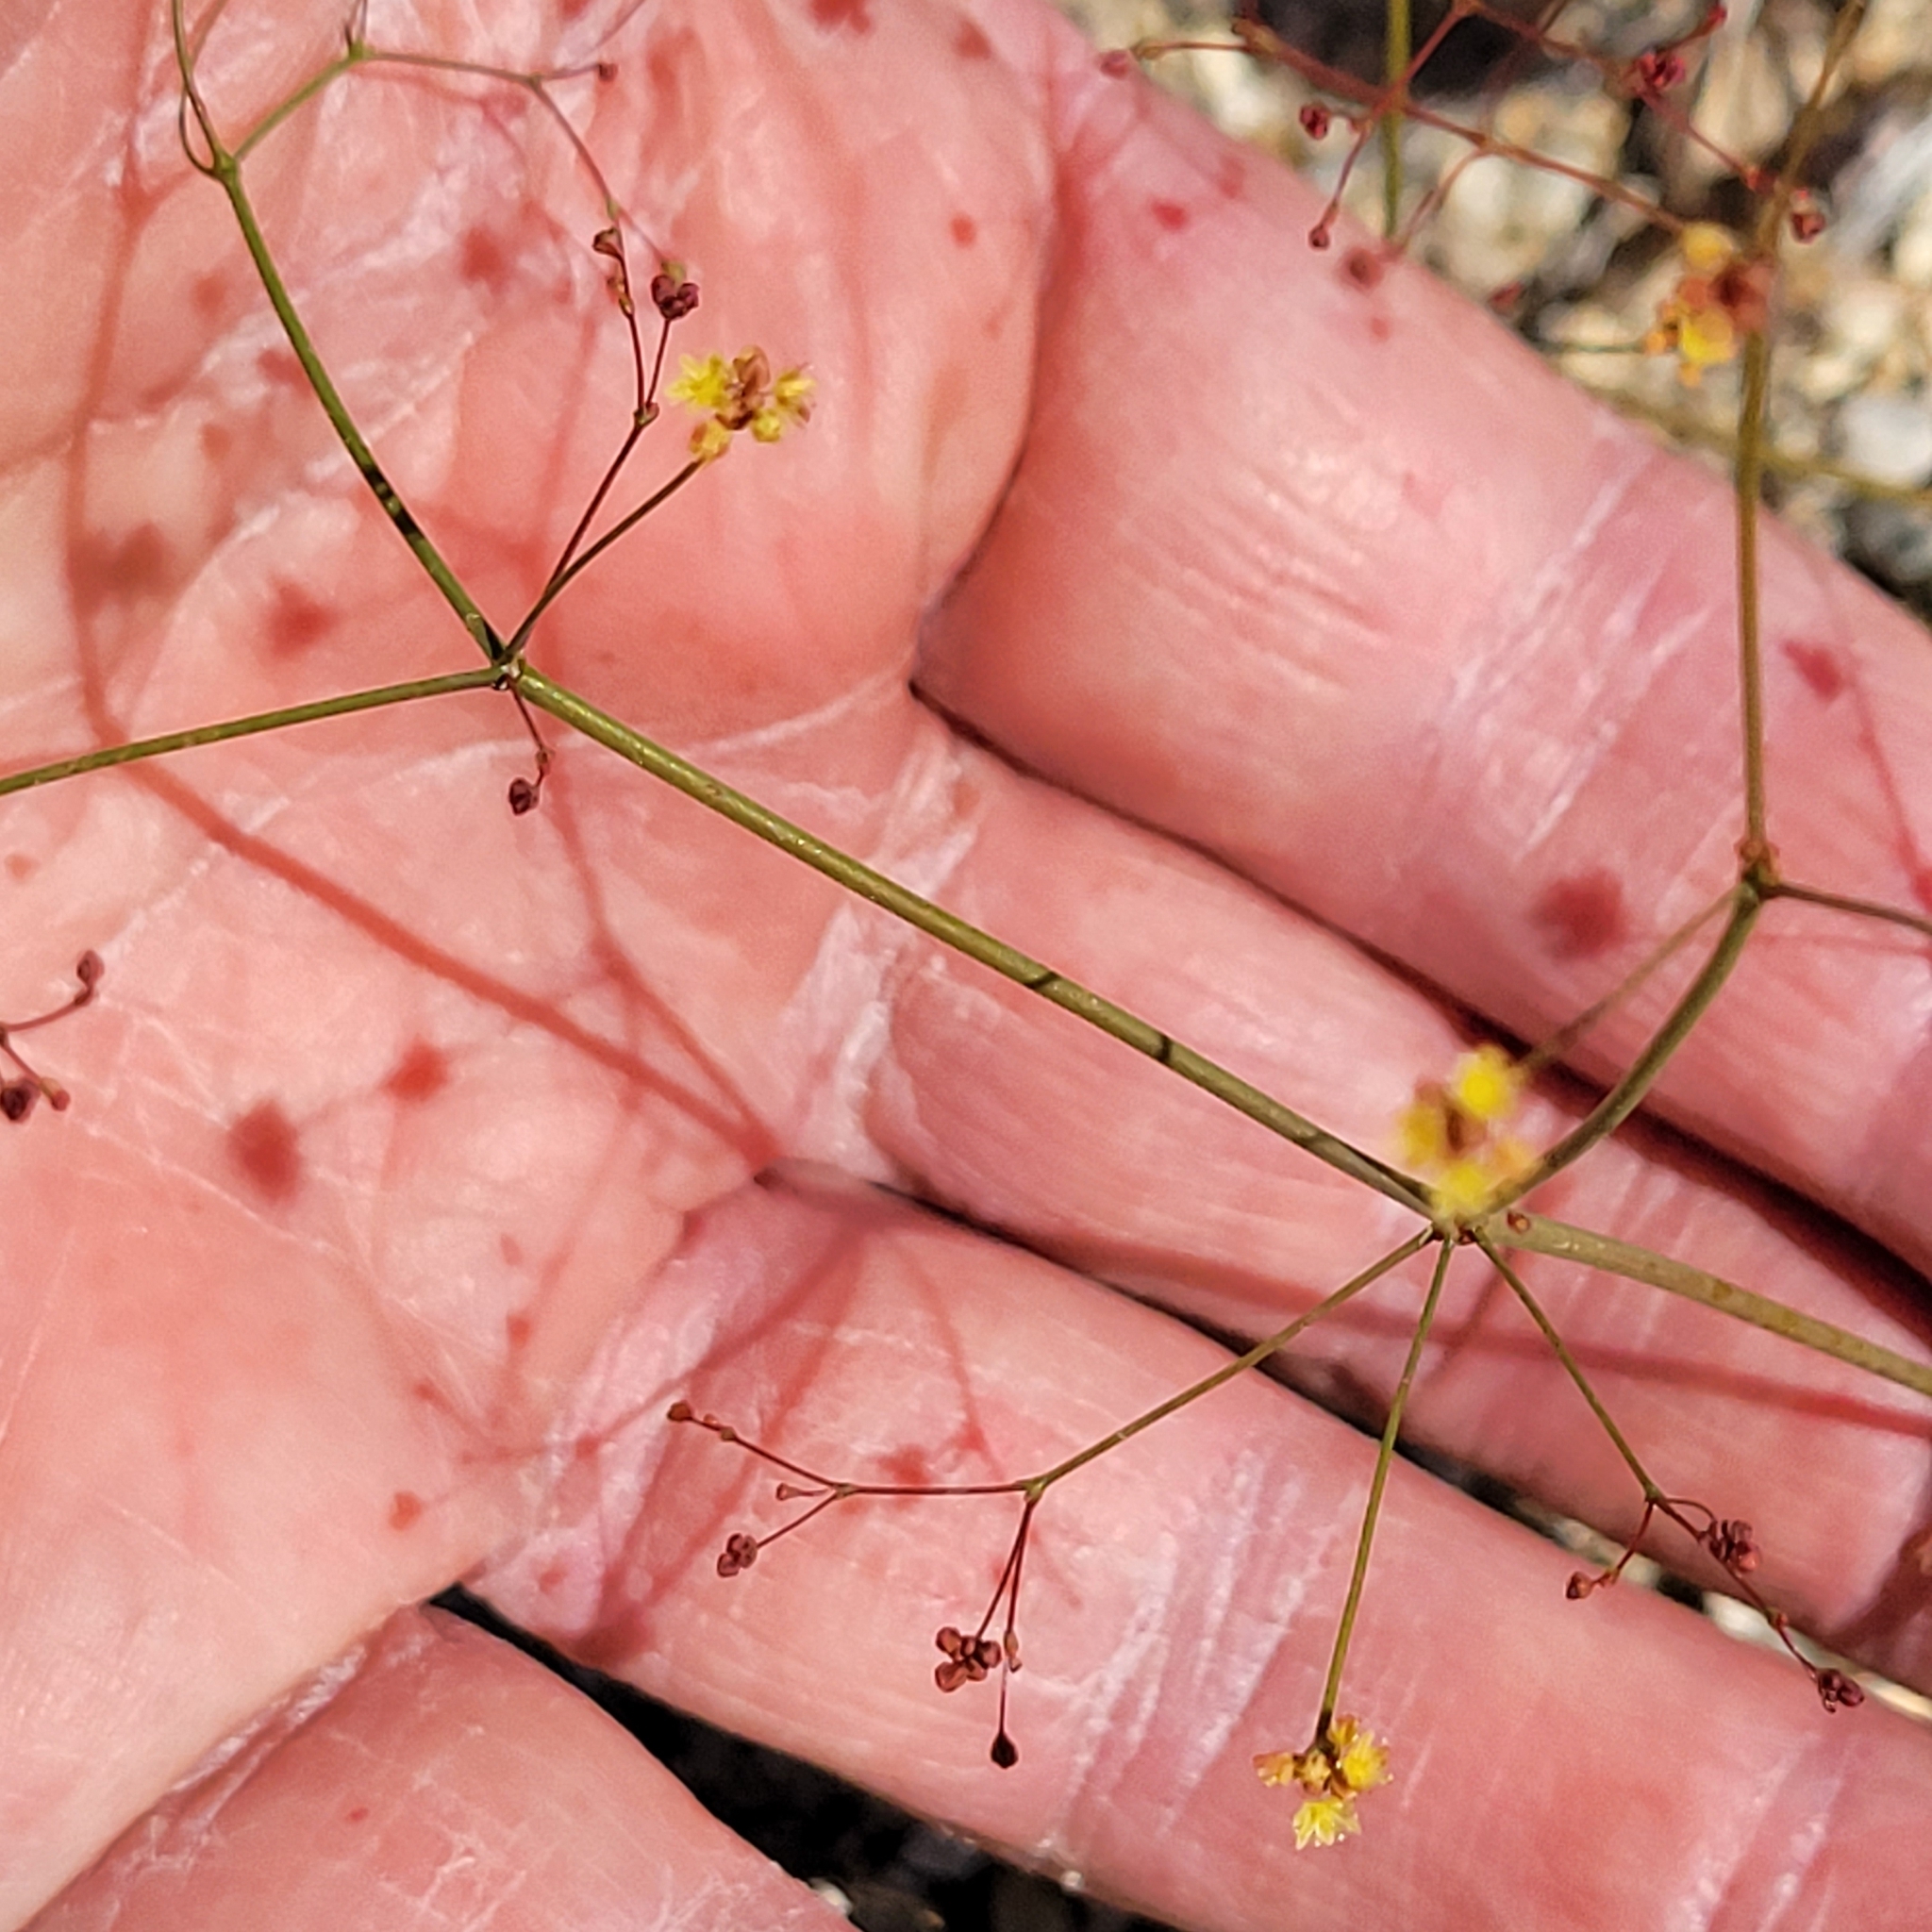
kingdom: Plantae
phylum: Tracheophyta
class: Magnoliopsida
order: Caryophyllales
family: Polygonaceae
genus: Eriogonum
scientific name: Eriogonum thomasii
